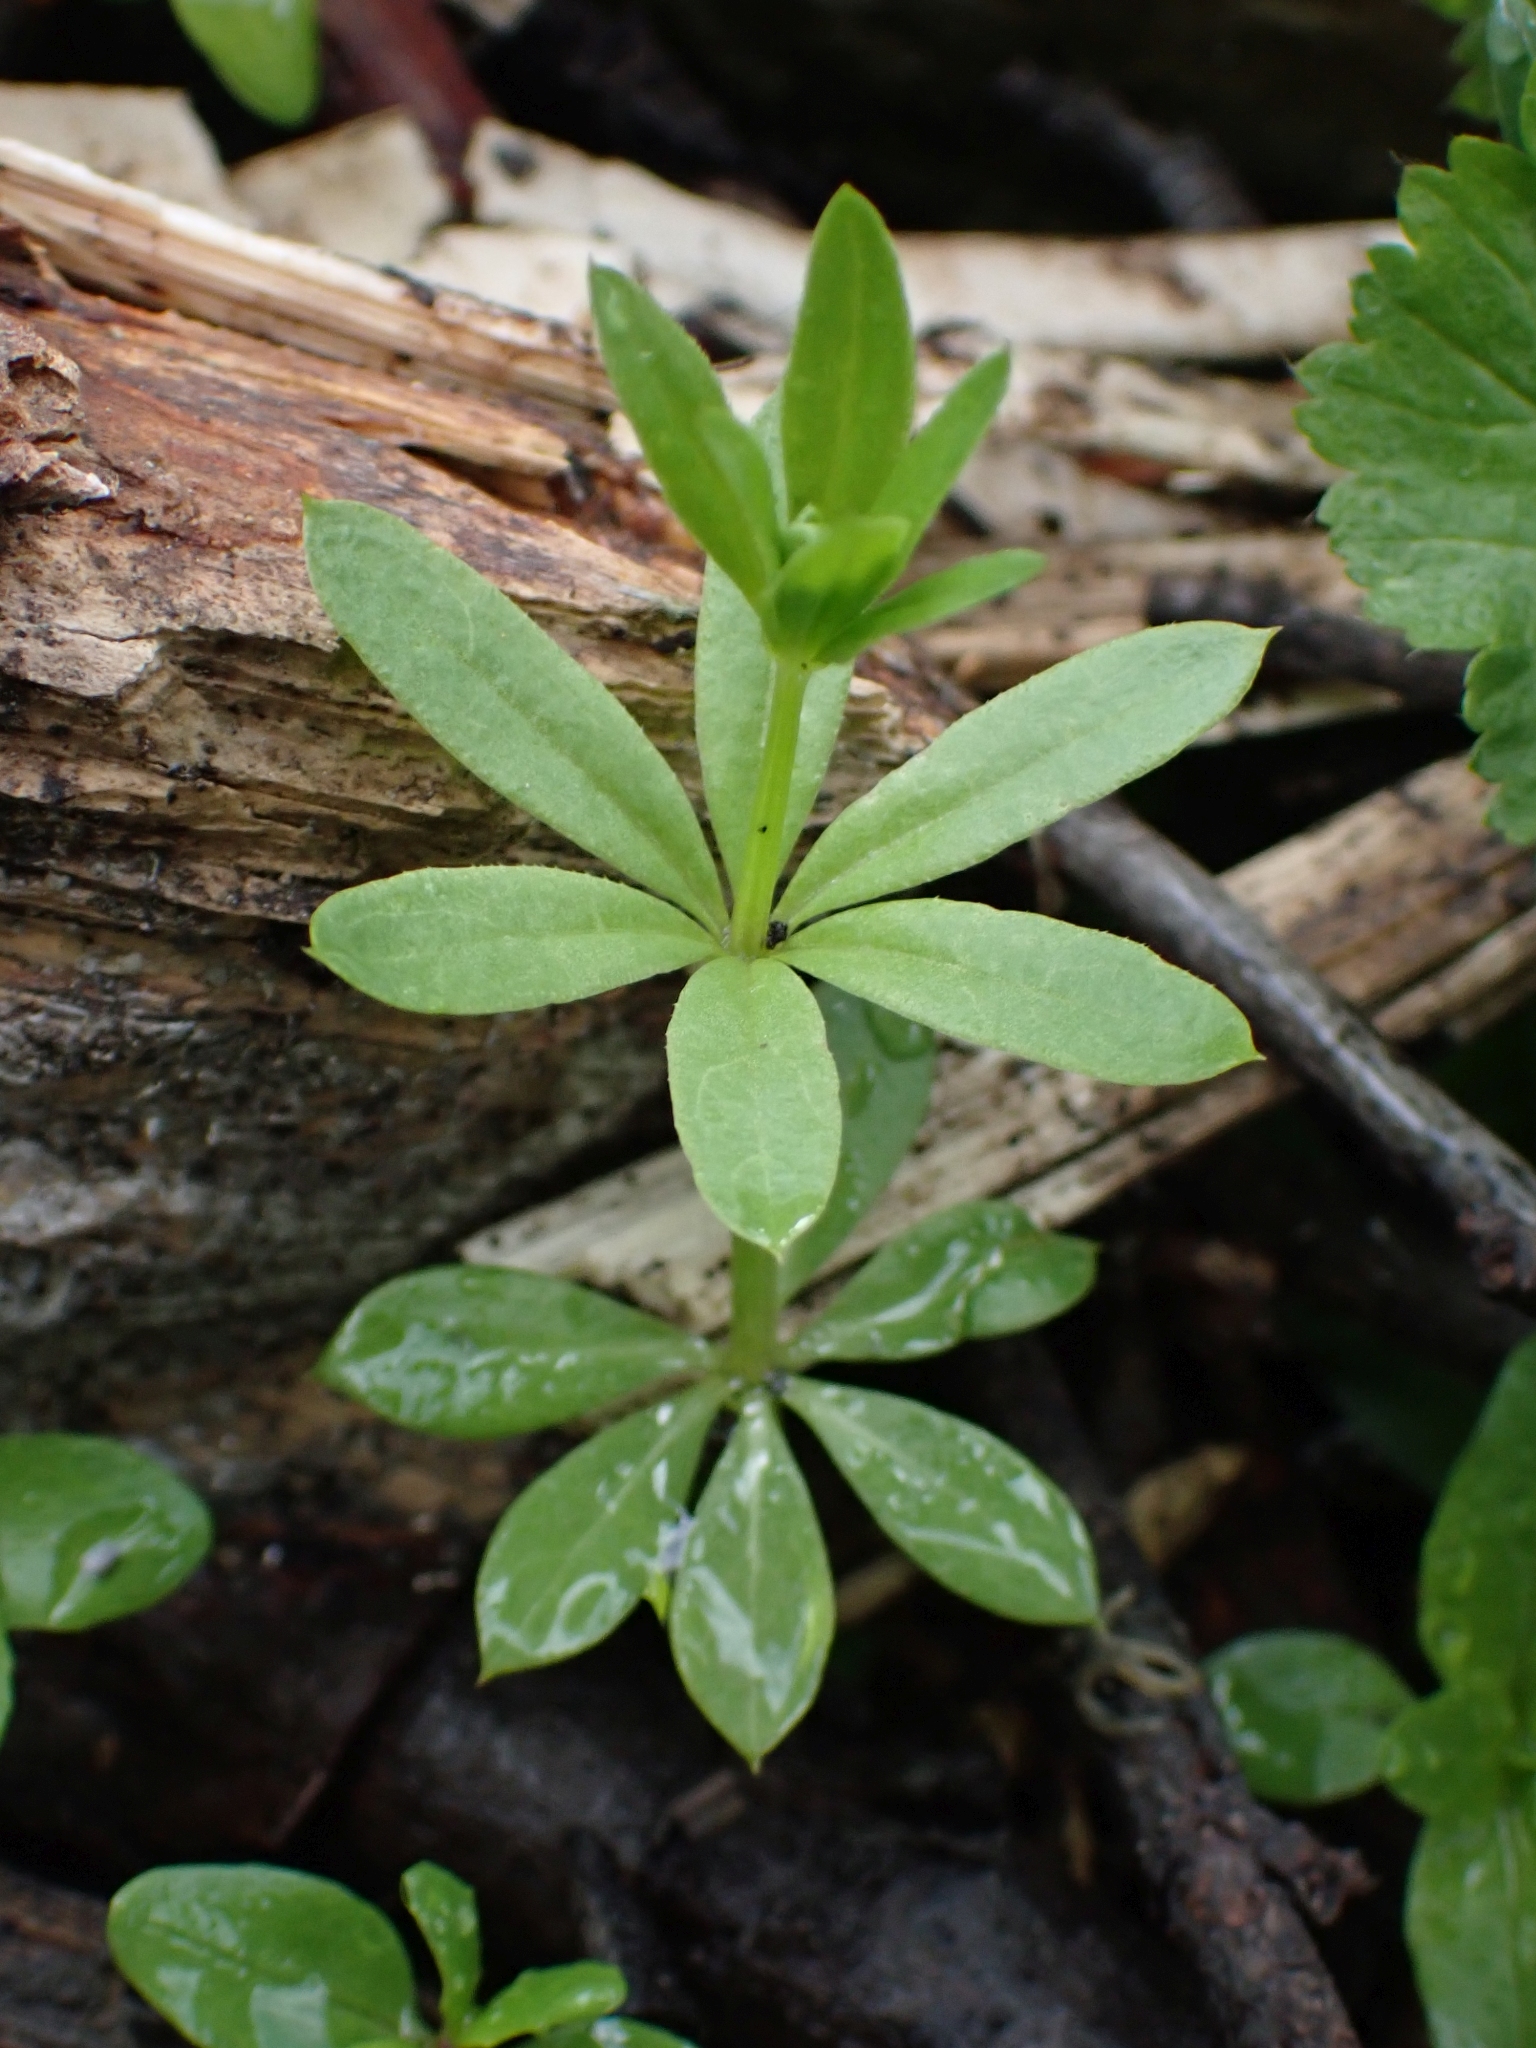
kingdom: Plantae
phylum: Tracheophyta
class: Magnoliopsida
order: Gentianales
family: Rubiaceae
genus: Galium
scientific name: Galium triflorum
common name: Fragrant bedstraw
